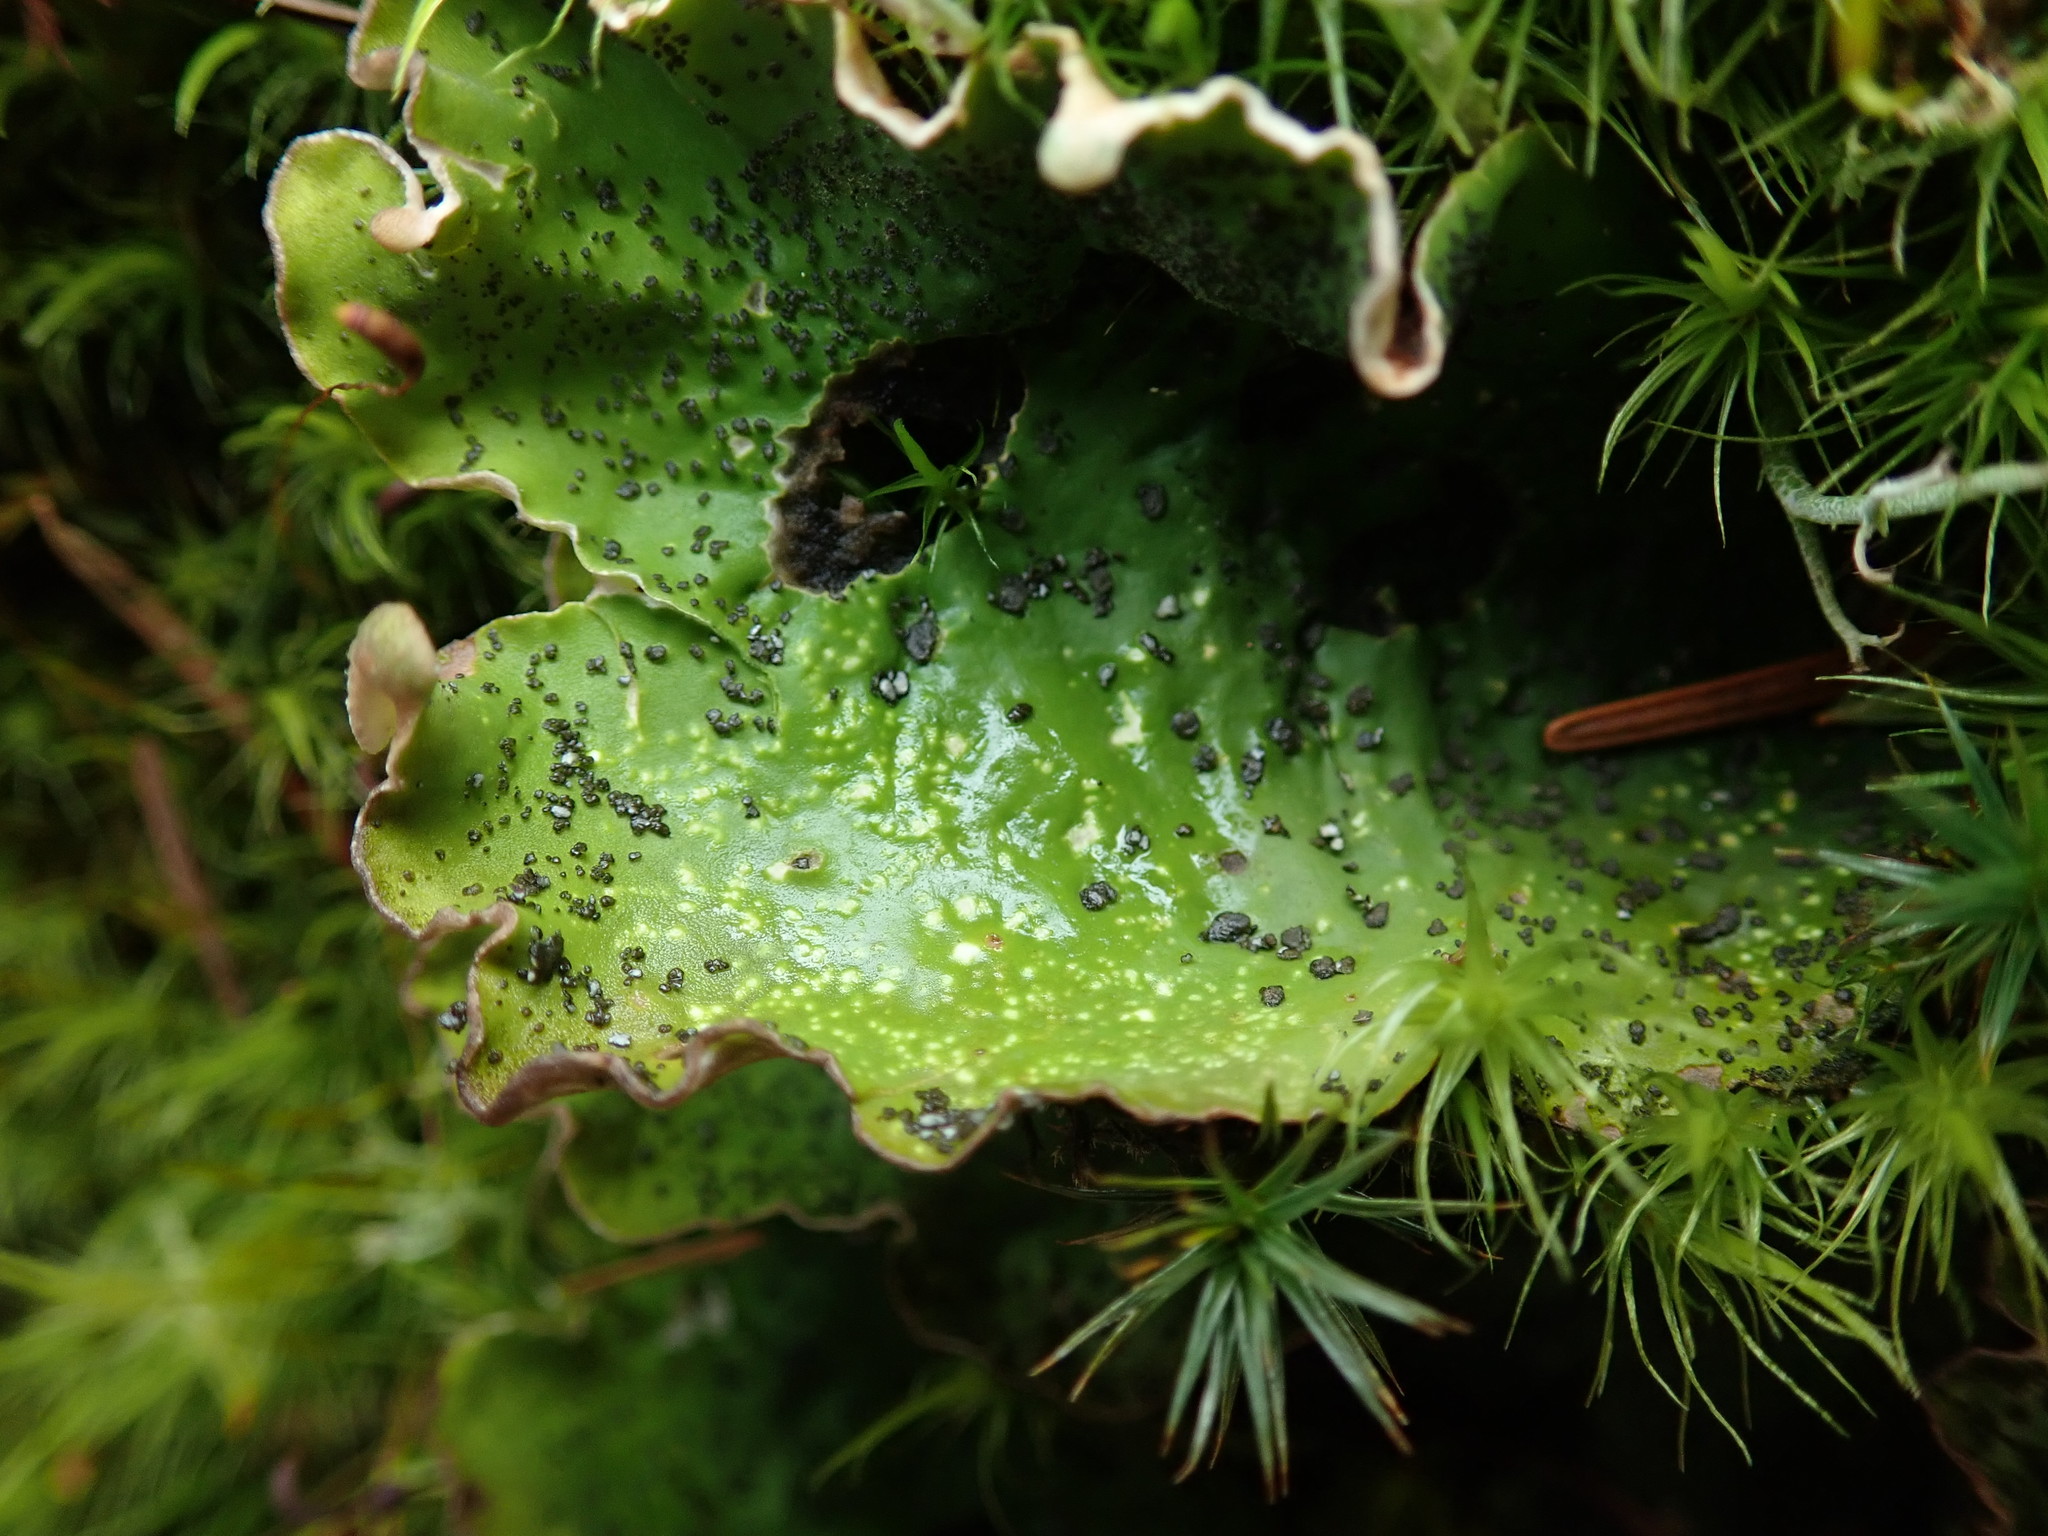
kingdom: Fungi
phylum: Ascomycota
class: Lecanoromycetes
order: Peltigerales
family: Peltigeraceae
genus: Peltigera
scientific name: Peltigera britannica
